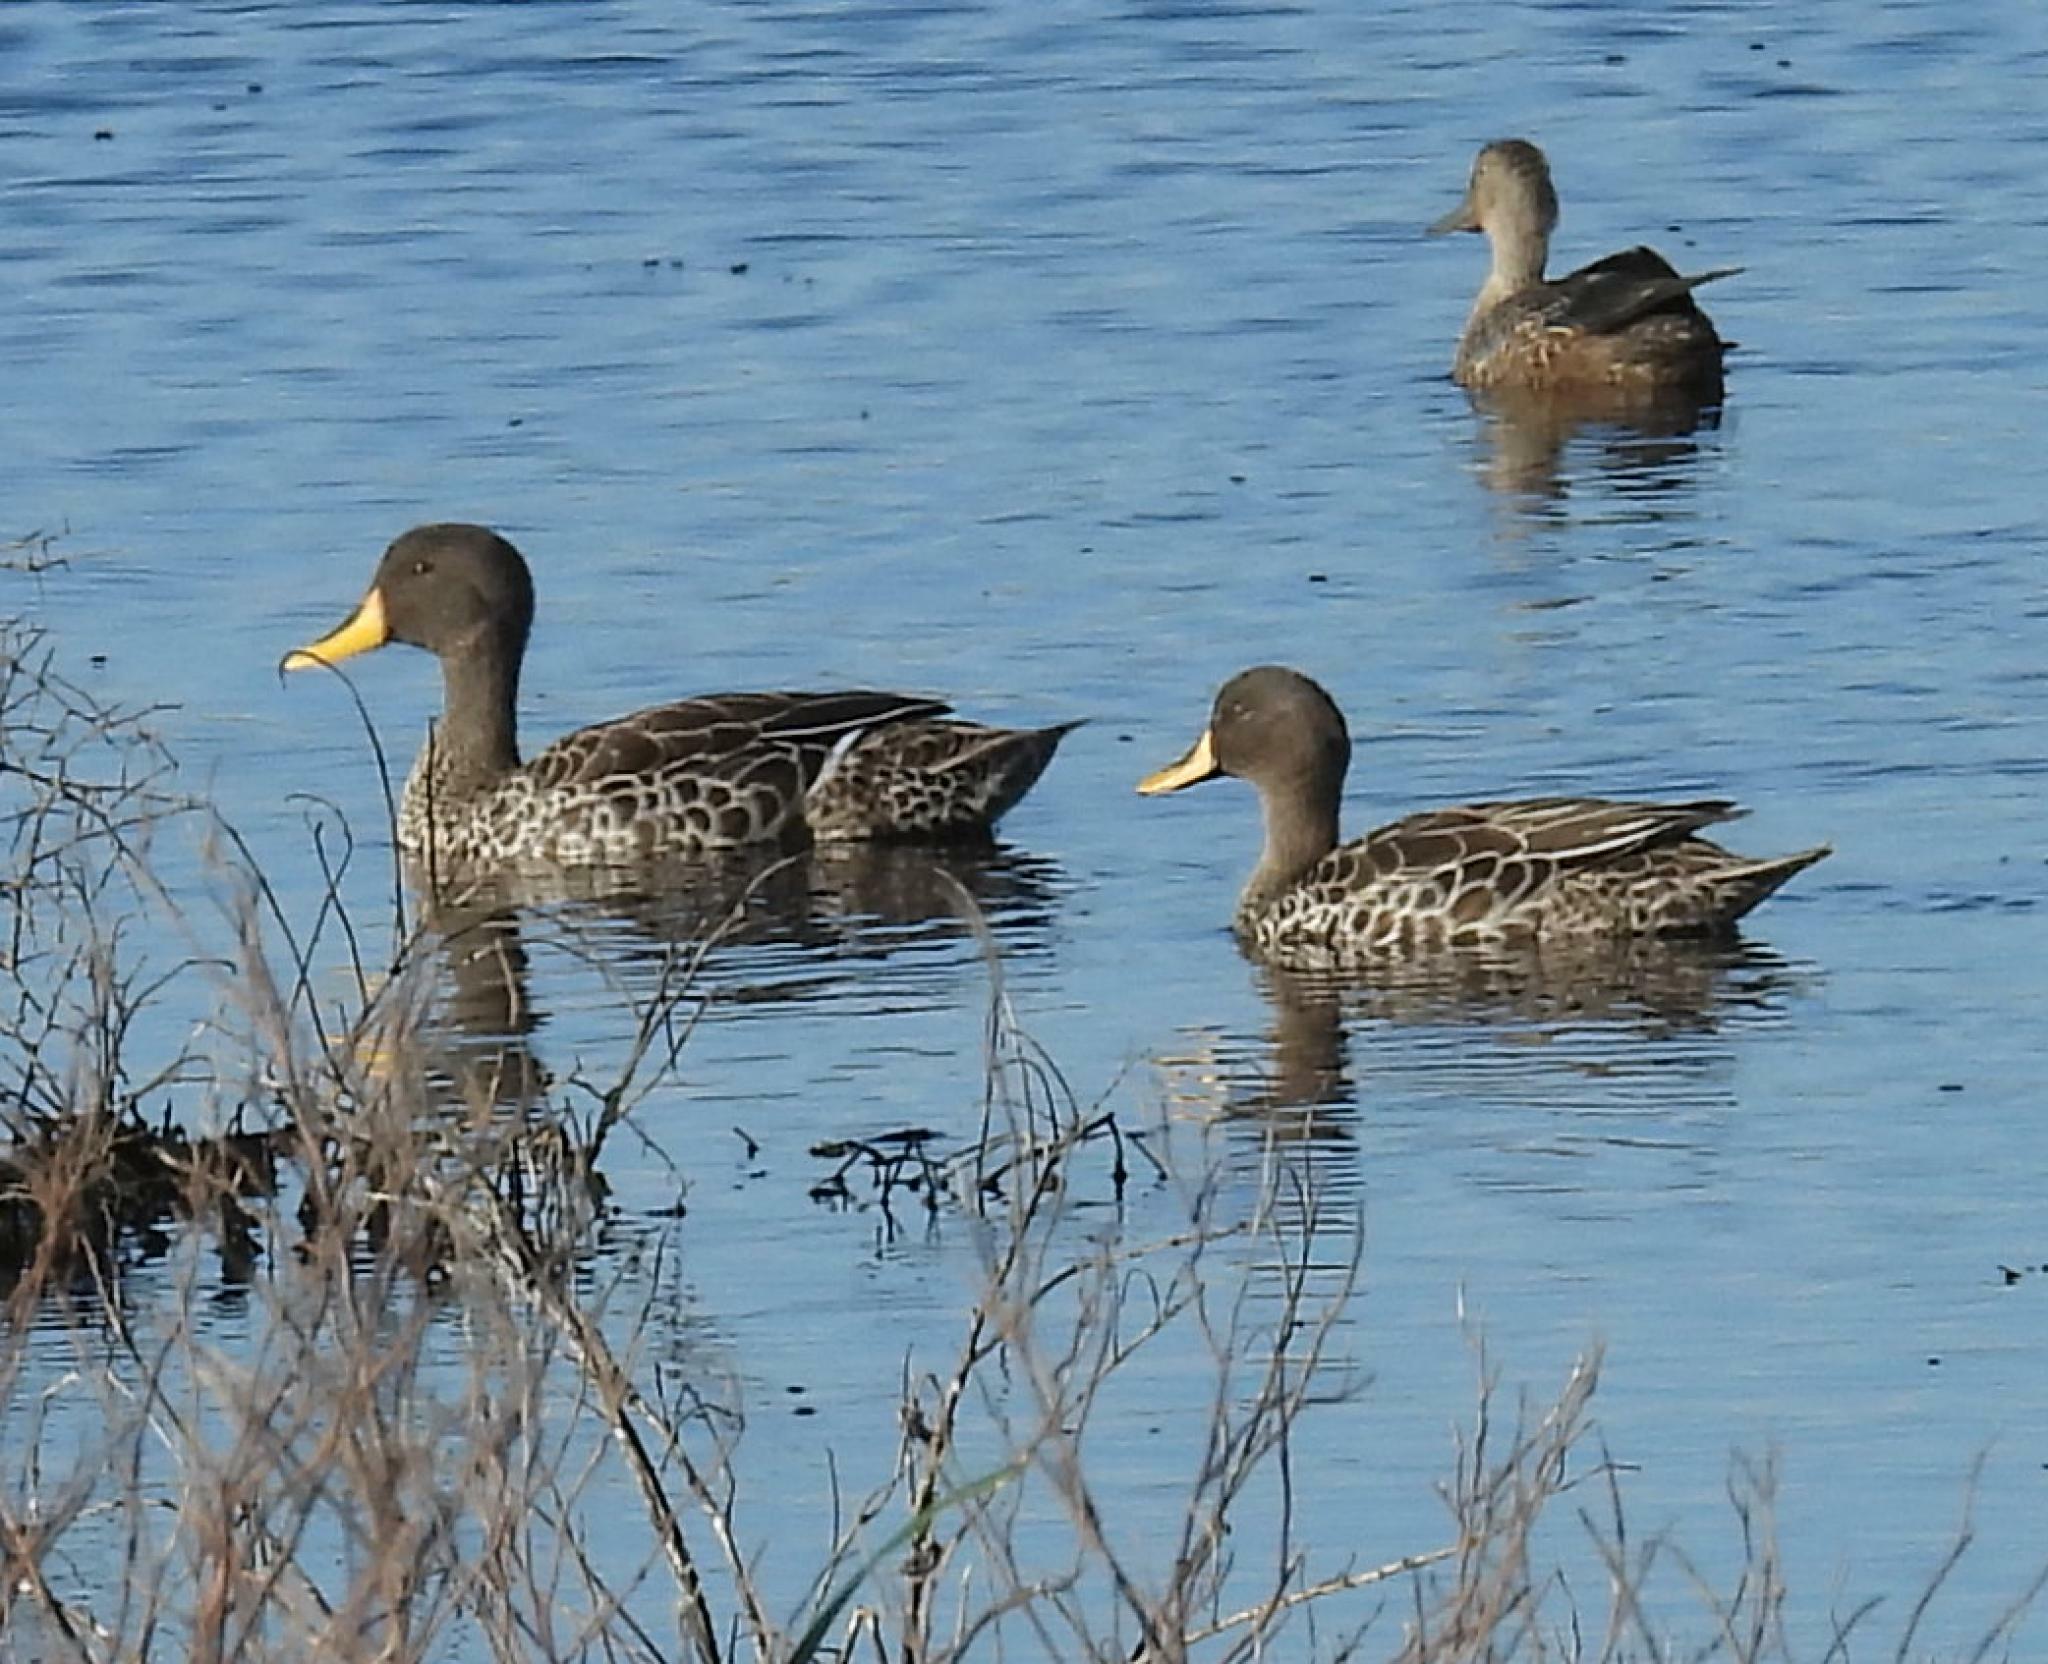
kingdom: Animalia
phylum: Chordata
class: Aves
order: Anseriformes
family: Anatidae
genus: Anas
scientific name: Anas undulata
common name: Yellow-billed duck
